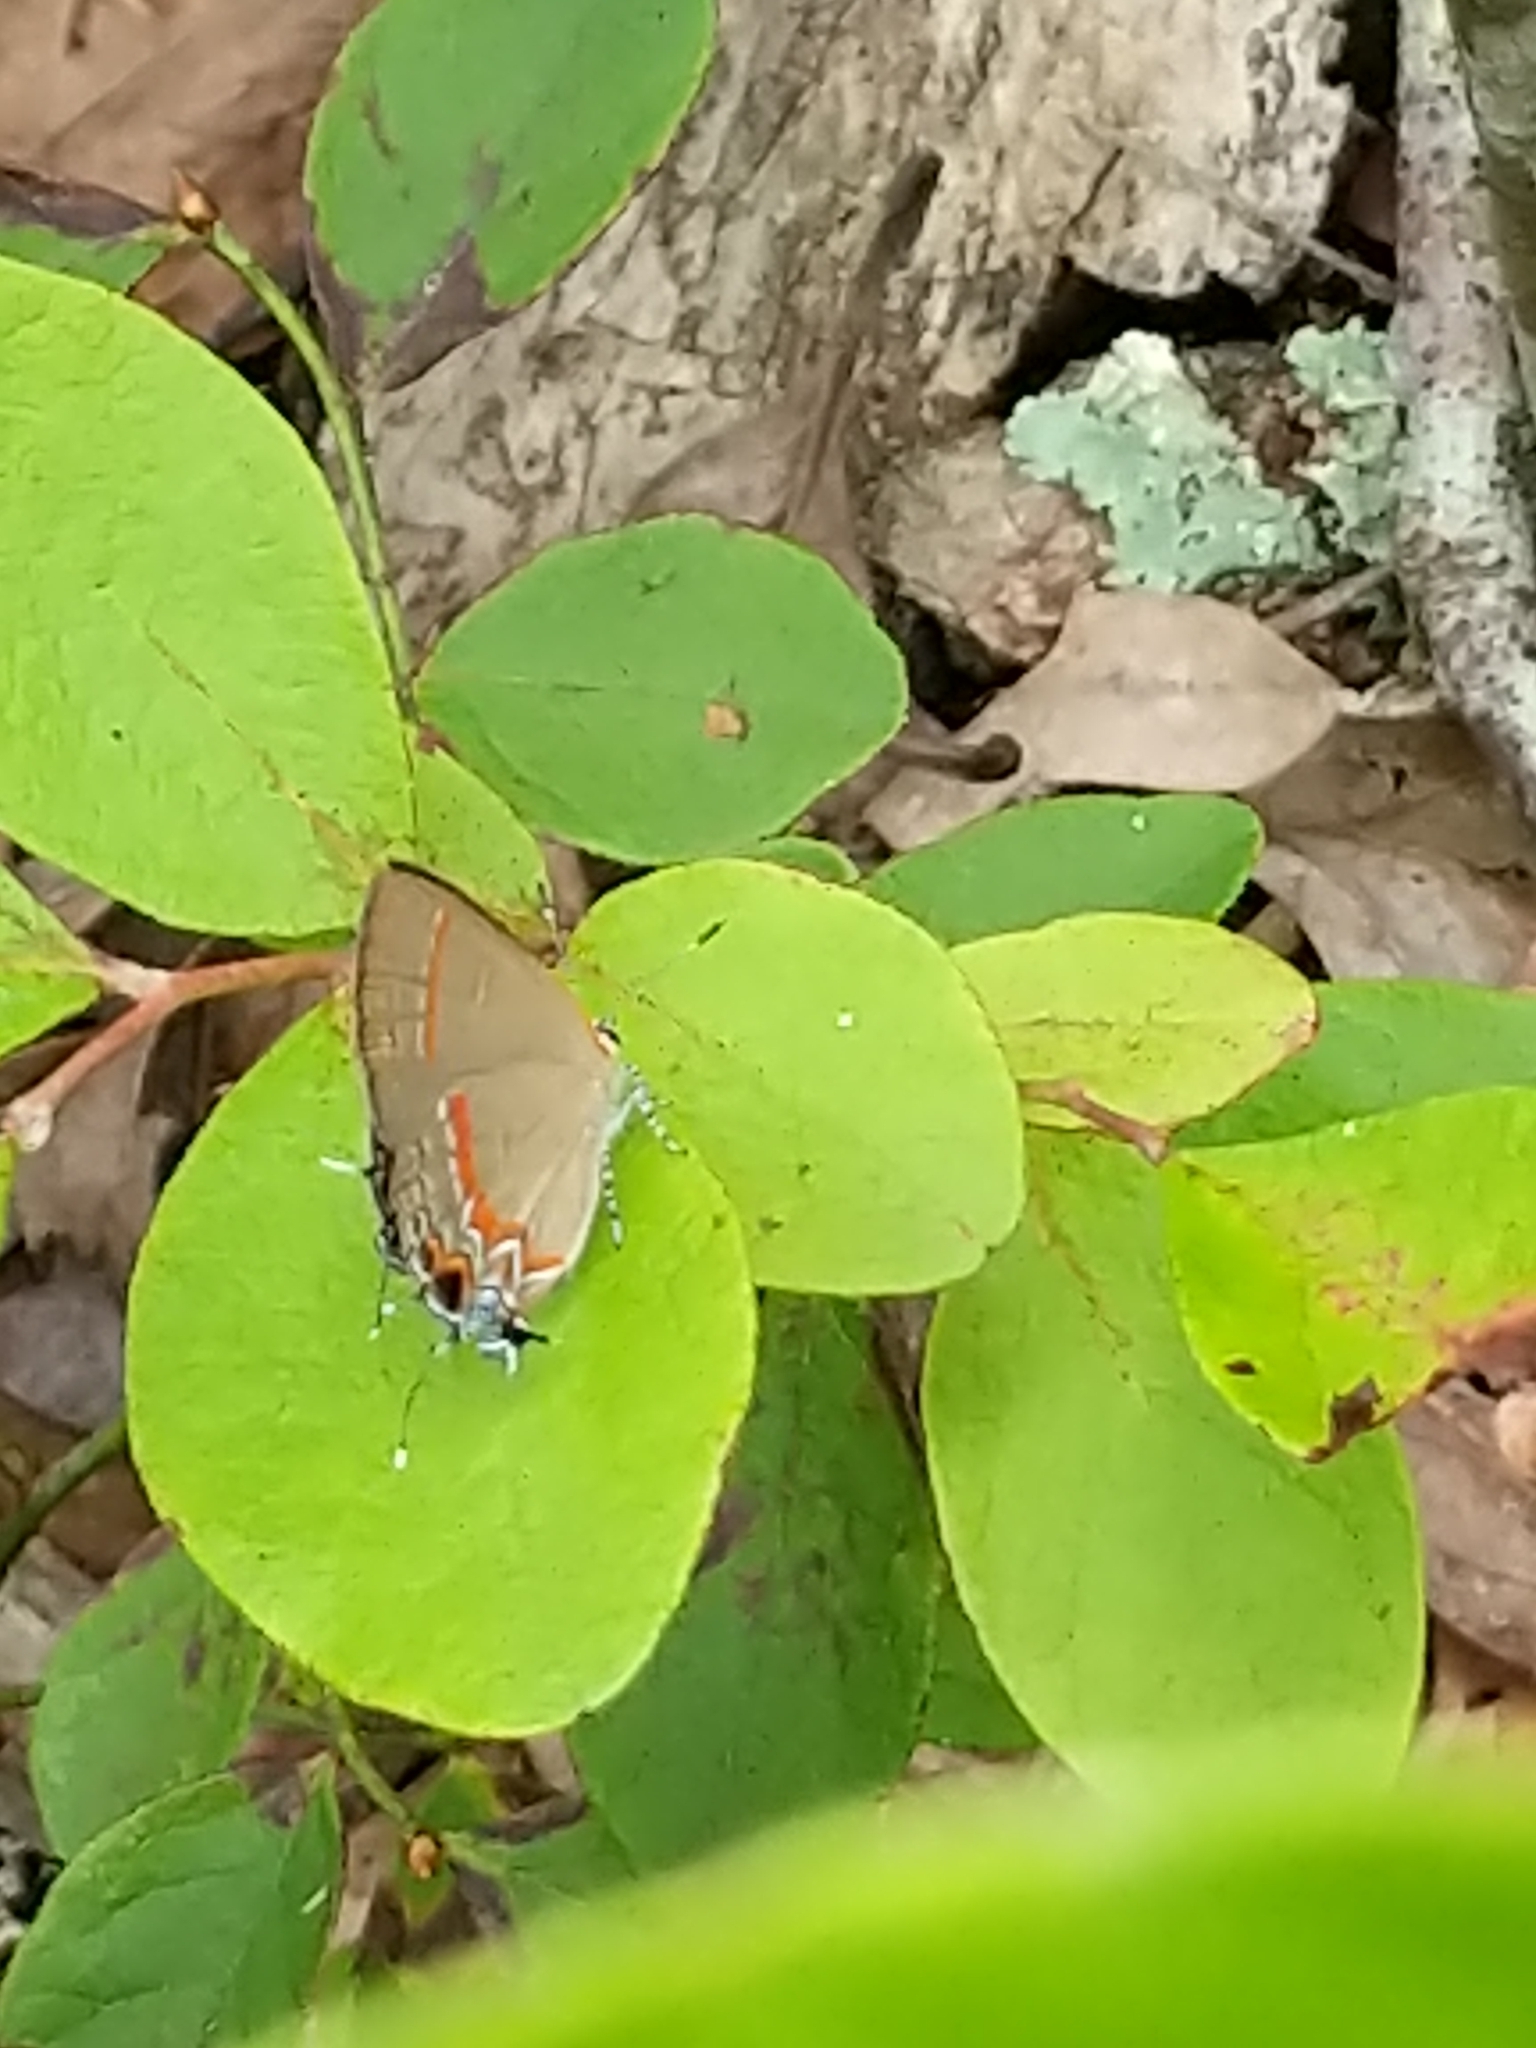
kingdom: Animalia
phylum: Arthropoda
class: Insecta
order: Lepidoptera
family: Lycaenidae
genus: Calycopis
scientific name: Calycopis cecrops
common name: Red-banded hairstreak
